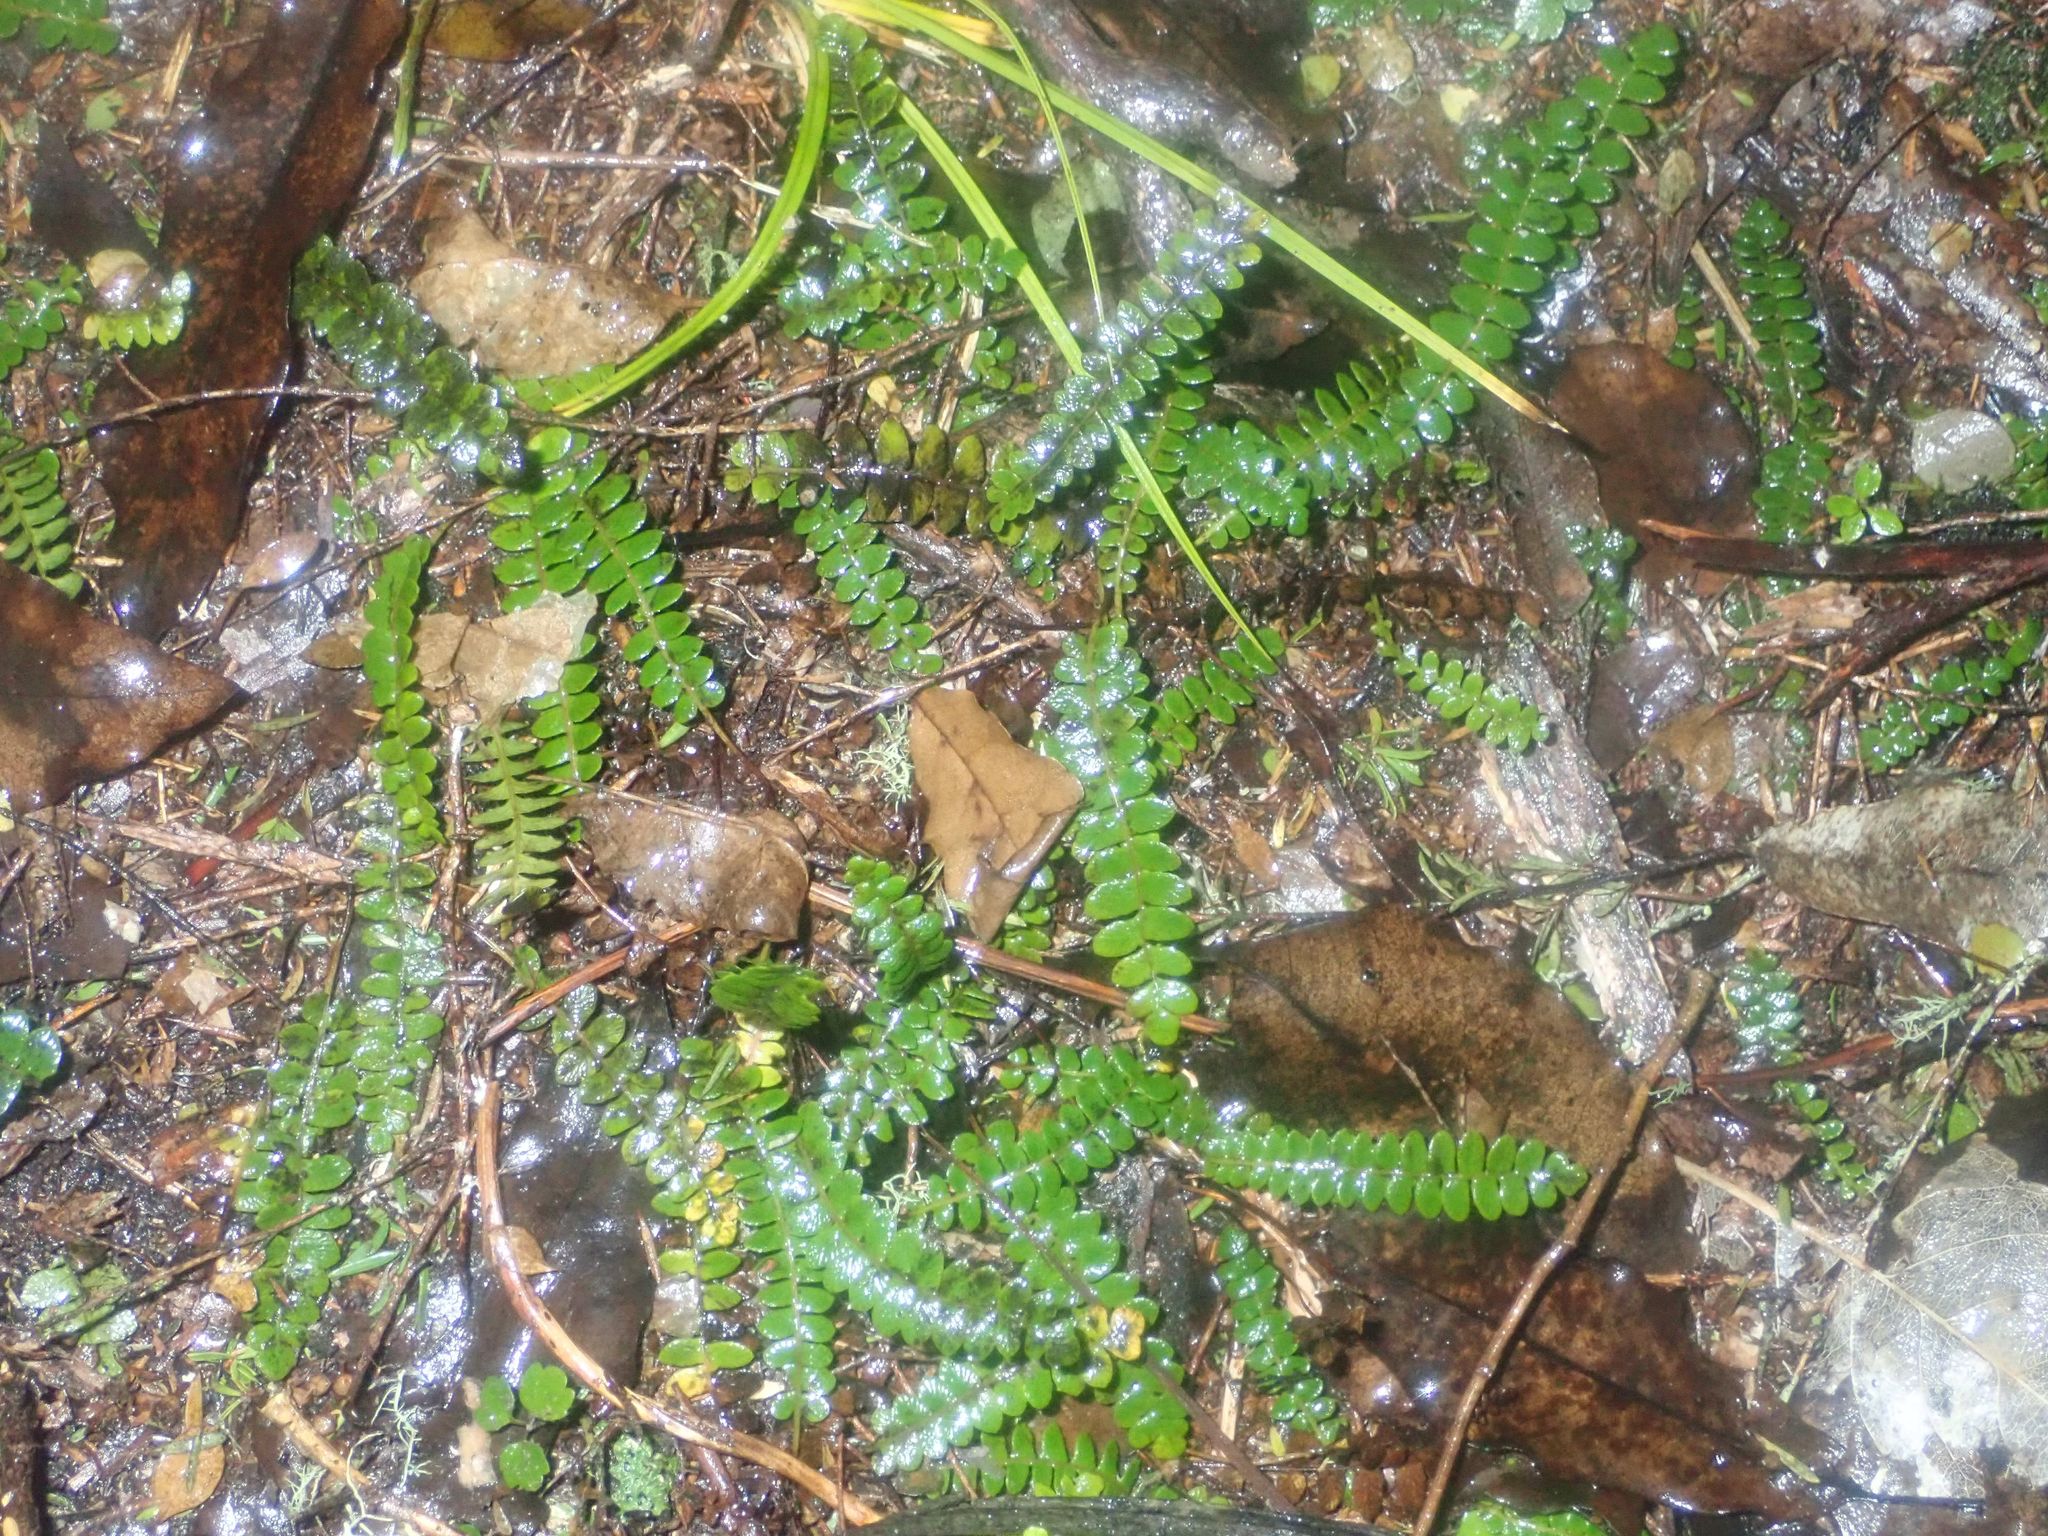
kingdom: Plantae
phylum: Tracheophyta
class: Polypodiopsida
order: Polypodiales
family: Blechnaceae
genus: Austroblechnum
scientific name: Austroblechnum penna-marina
